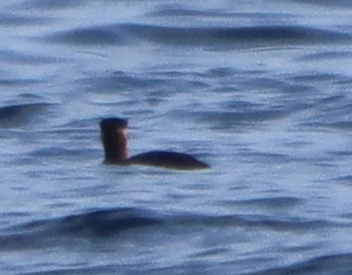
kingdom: Animalia
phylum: Chordata
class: Aves
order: Podicipediformes
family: Podicipedidae
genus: Podiceps
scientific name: Podiceps grisegena
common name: Red-necked grebe
